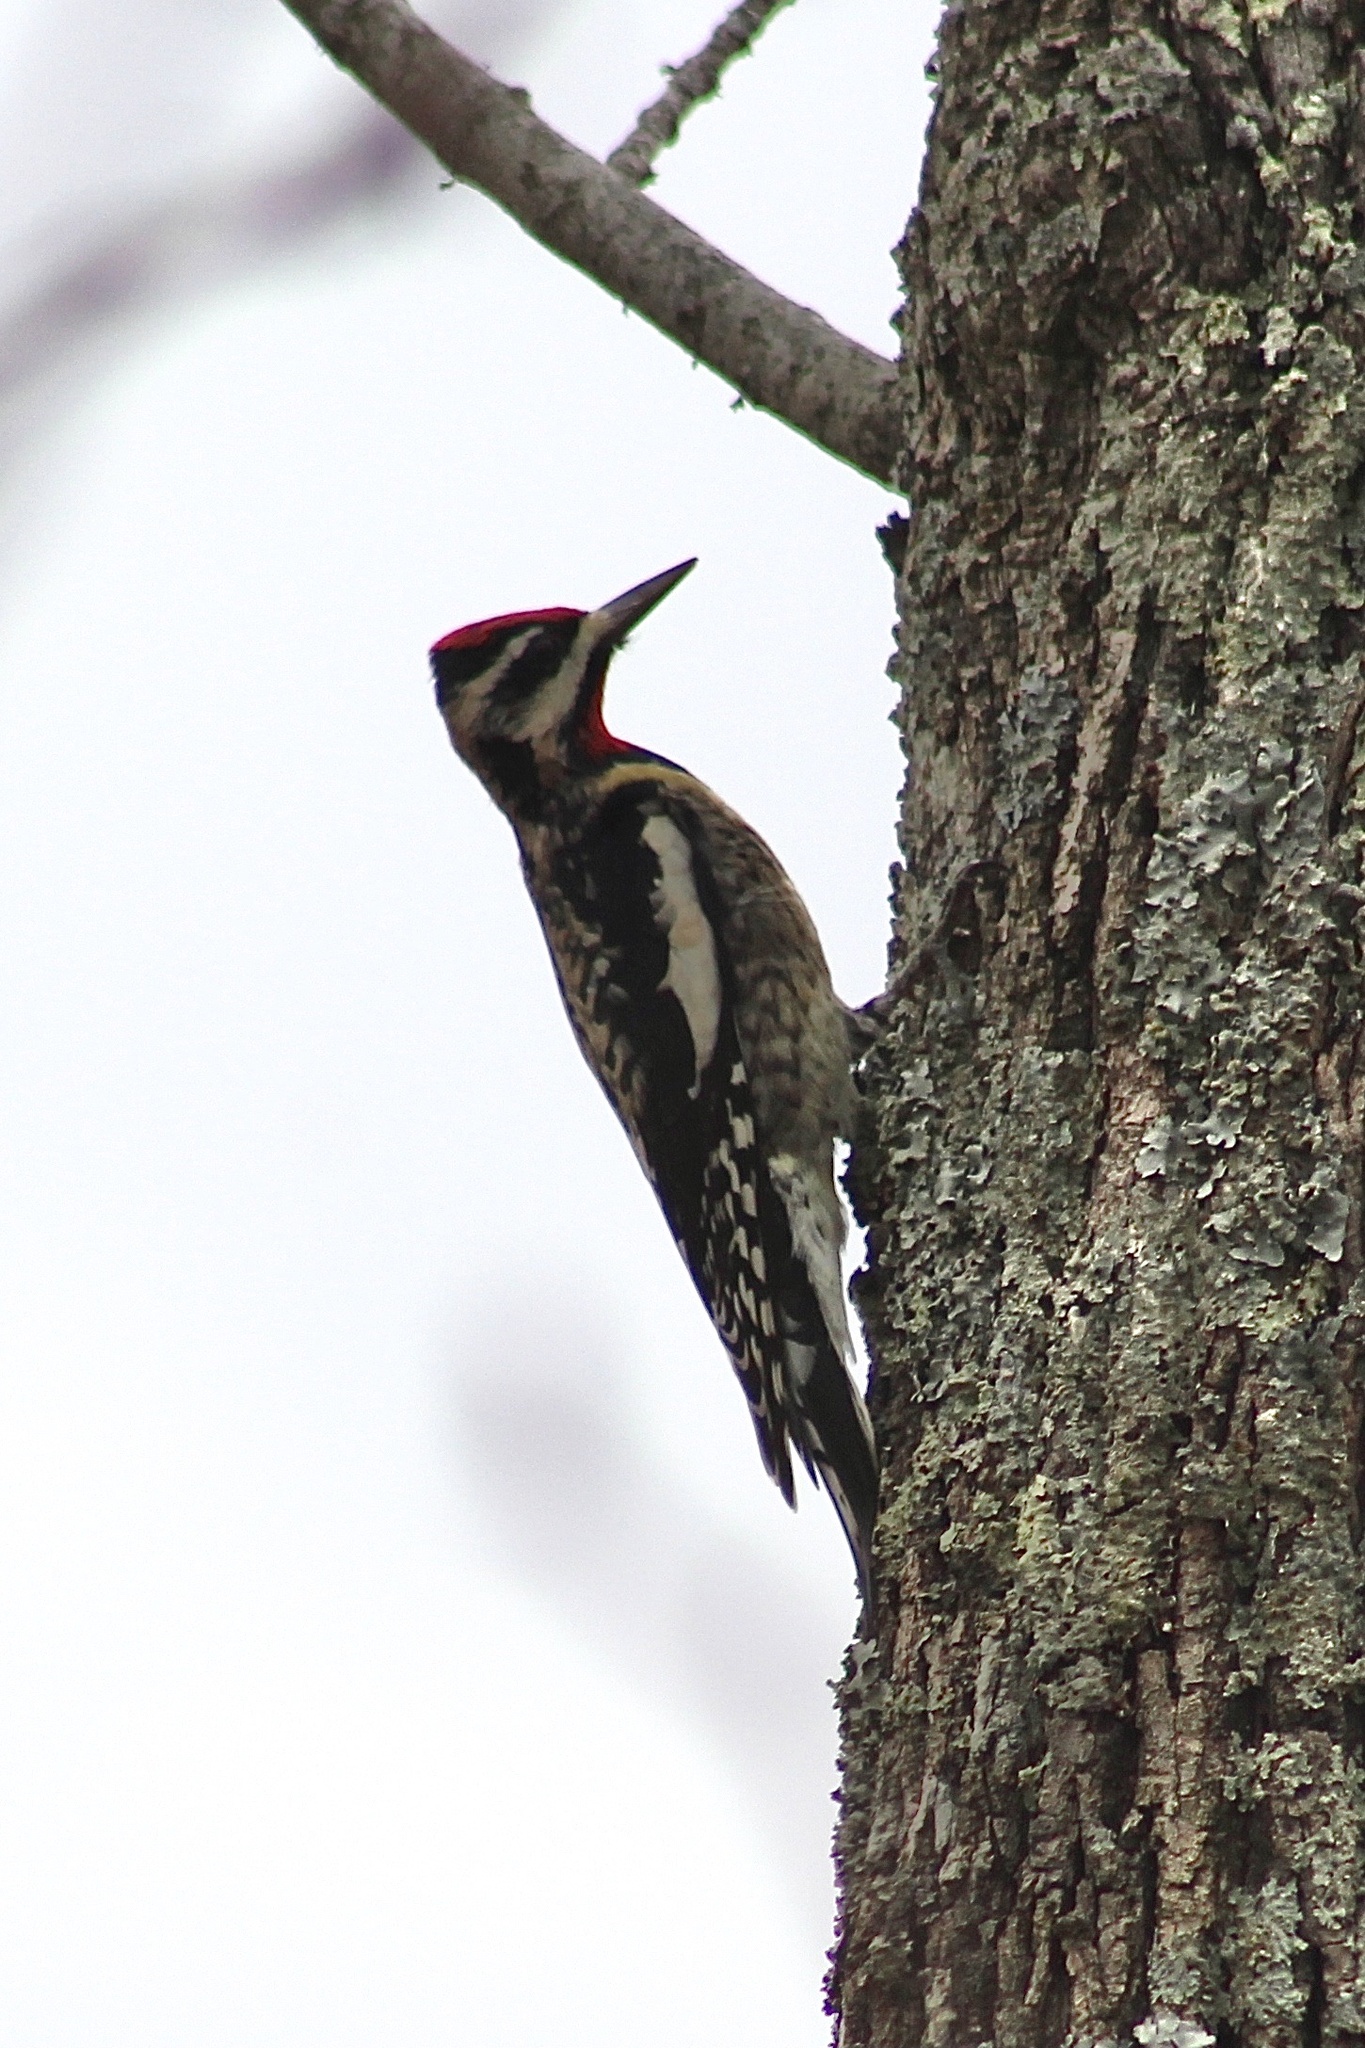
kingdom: Animalia
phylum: Chordata
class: Aves
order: Piciformes
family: Picidae
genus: Sphyrapicus
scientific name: Sphyrapicus varius
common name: Yellow-bellied sapsucker
